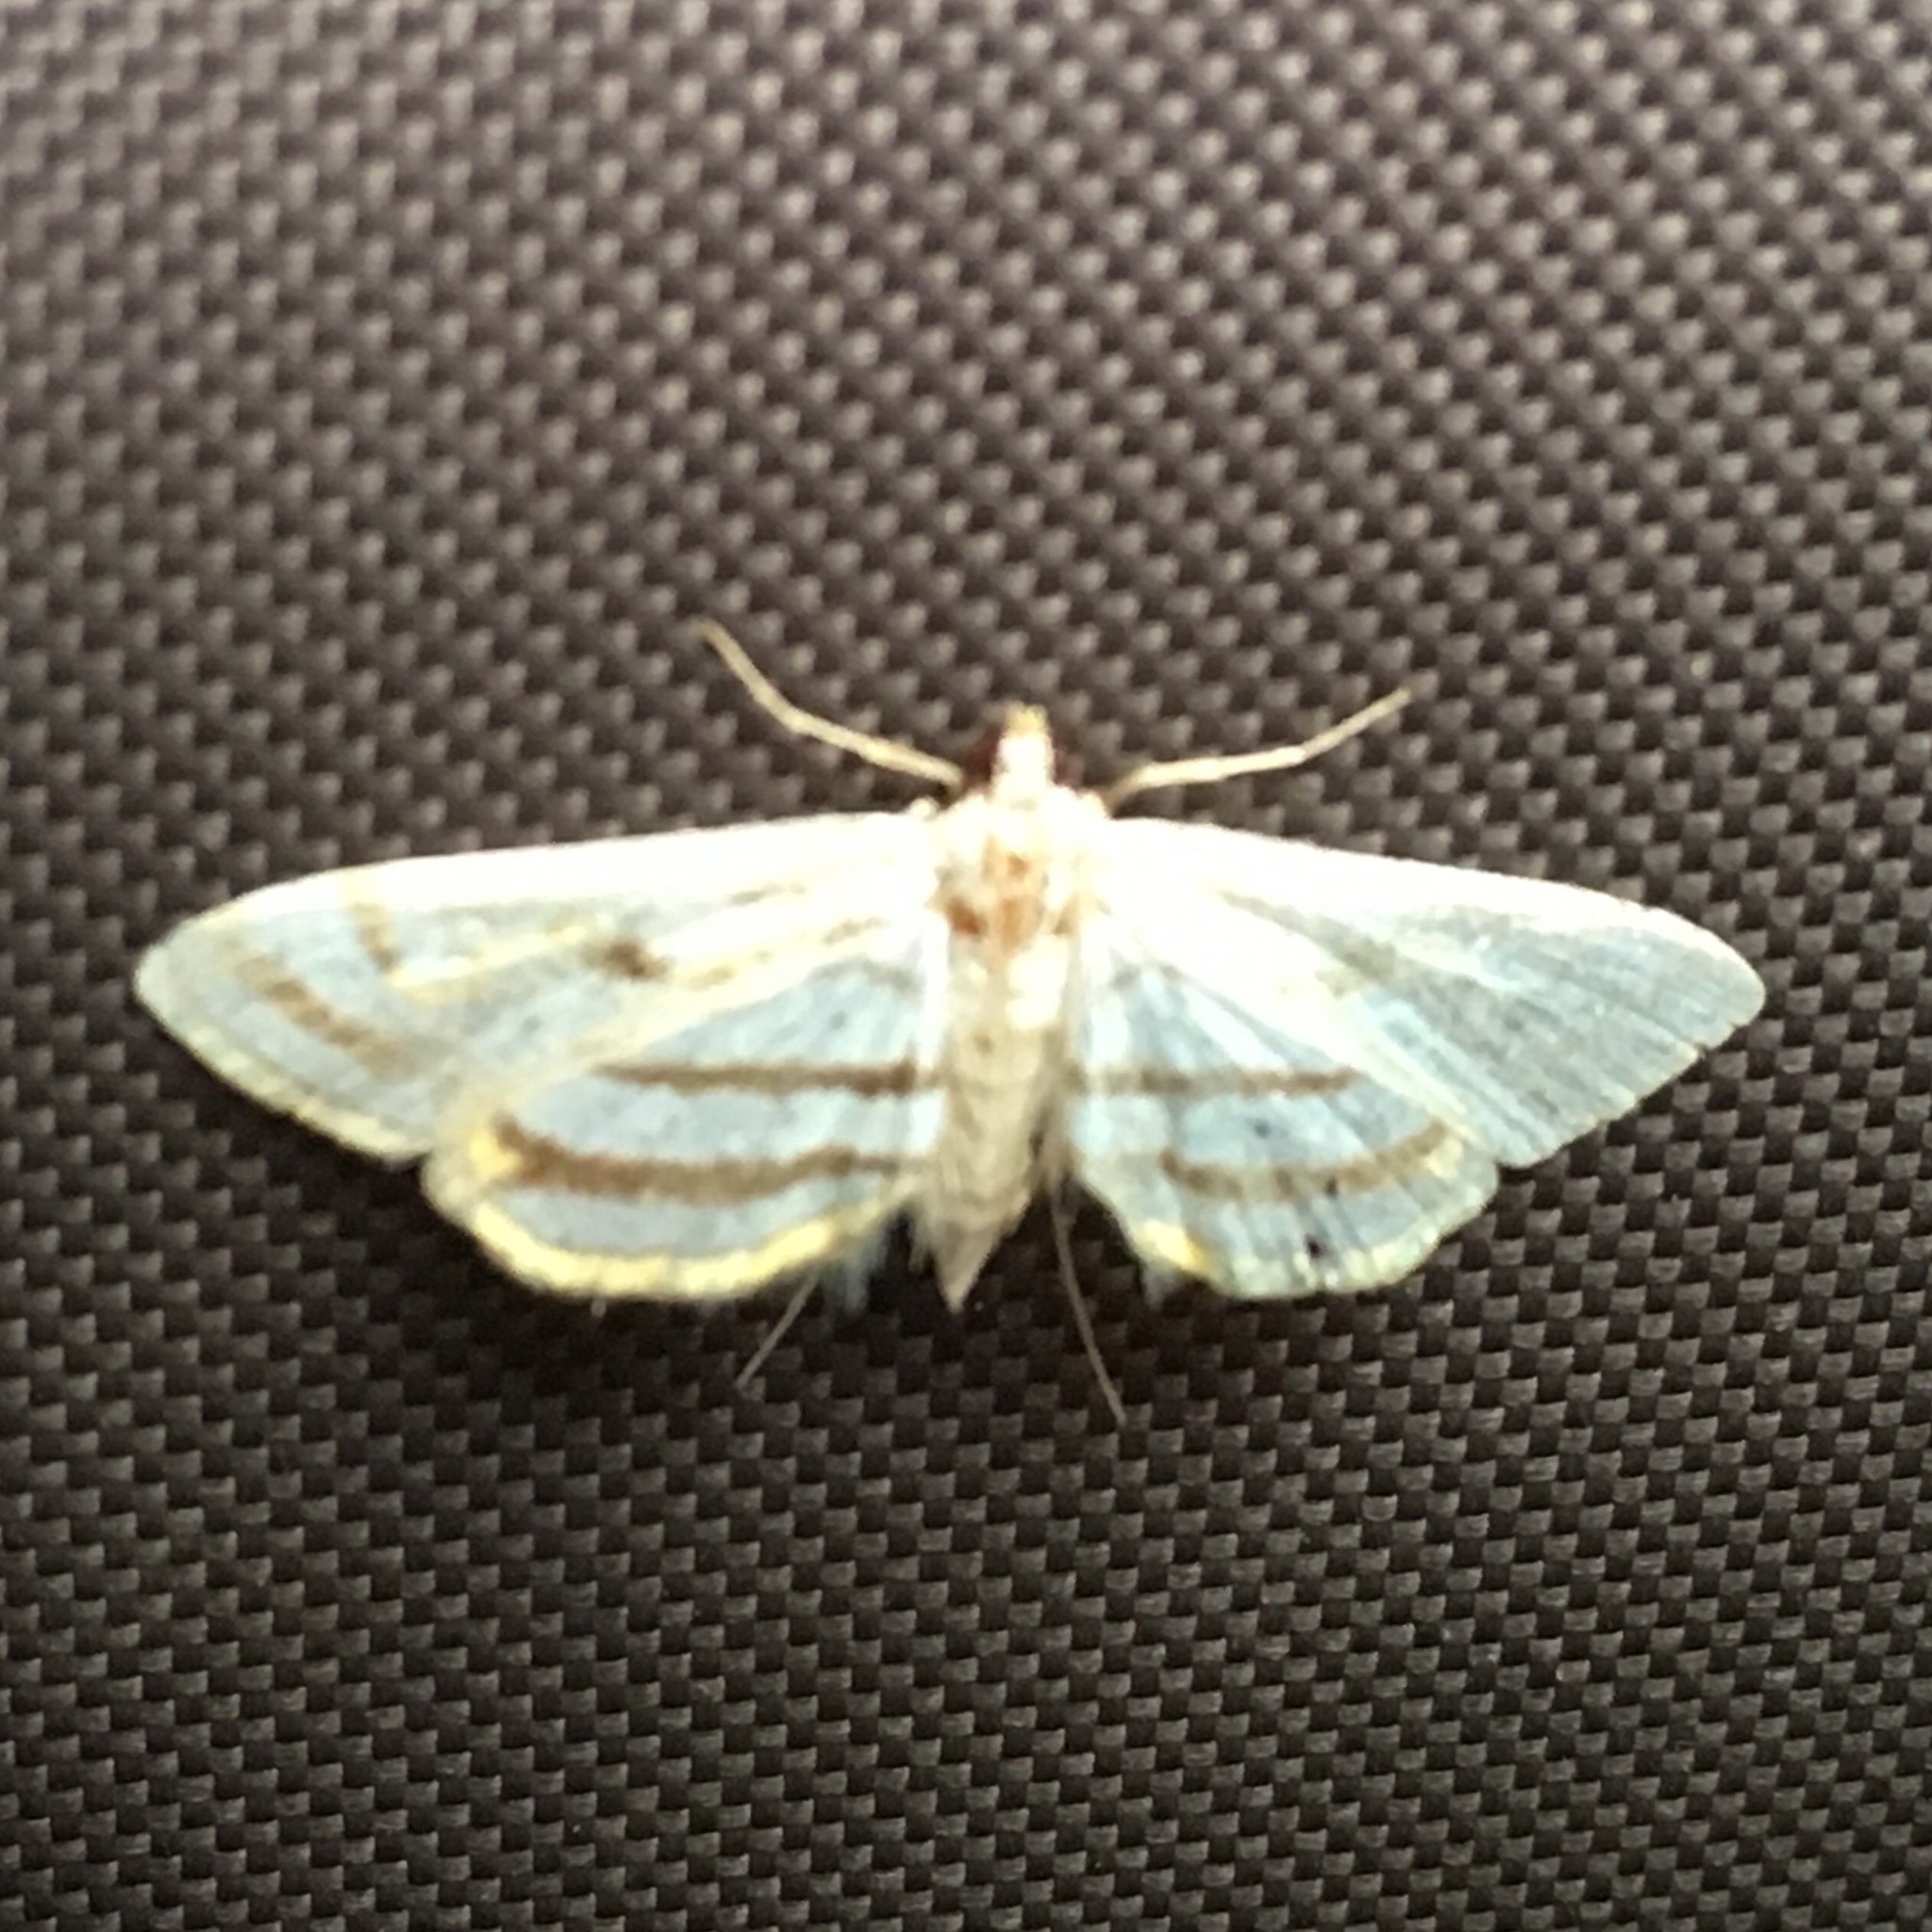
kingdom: Animalia
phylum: Arthropoda
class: Insecta
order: Lepidoptera
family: Crambidae
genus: Parapoynx
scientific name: Parapoynx badiusalis
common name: Chestnut-marked pondweed moth
